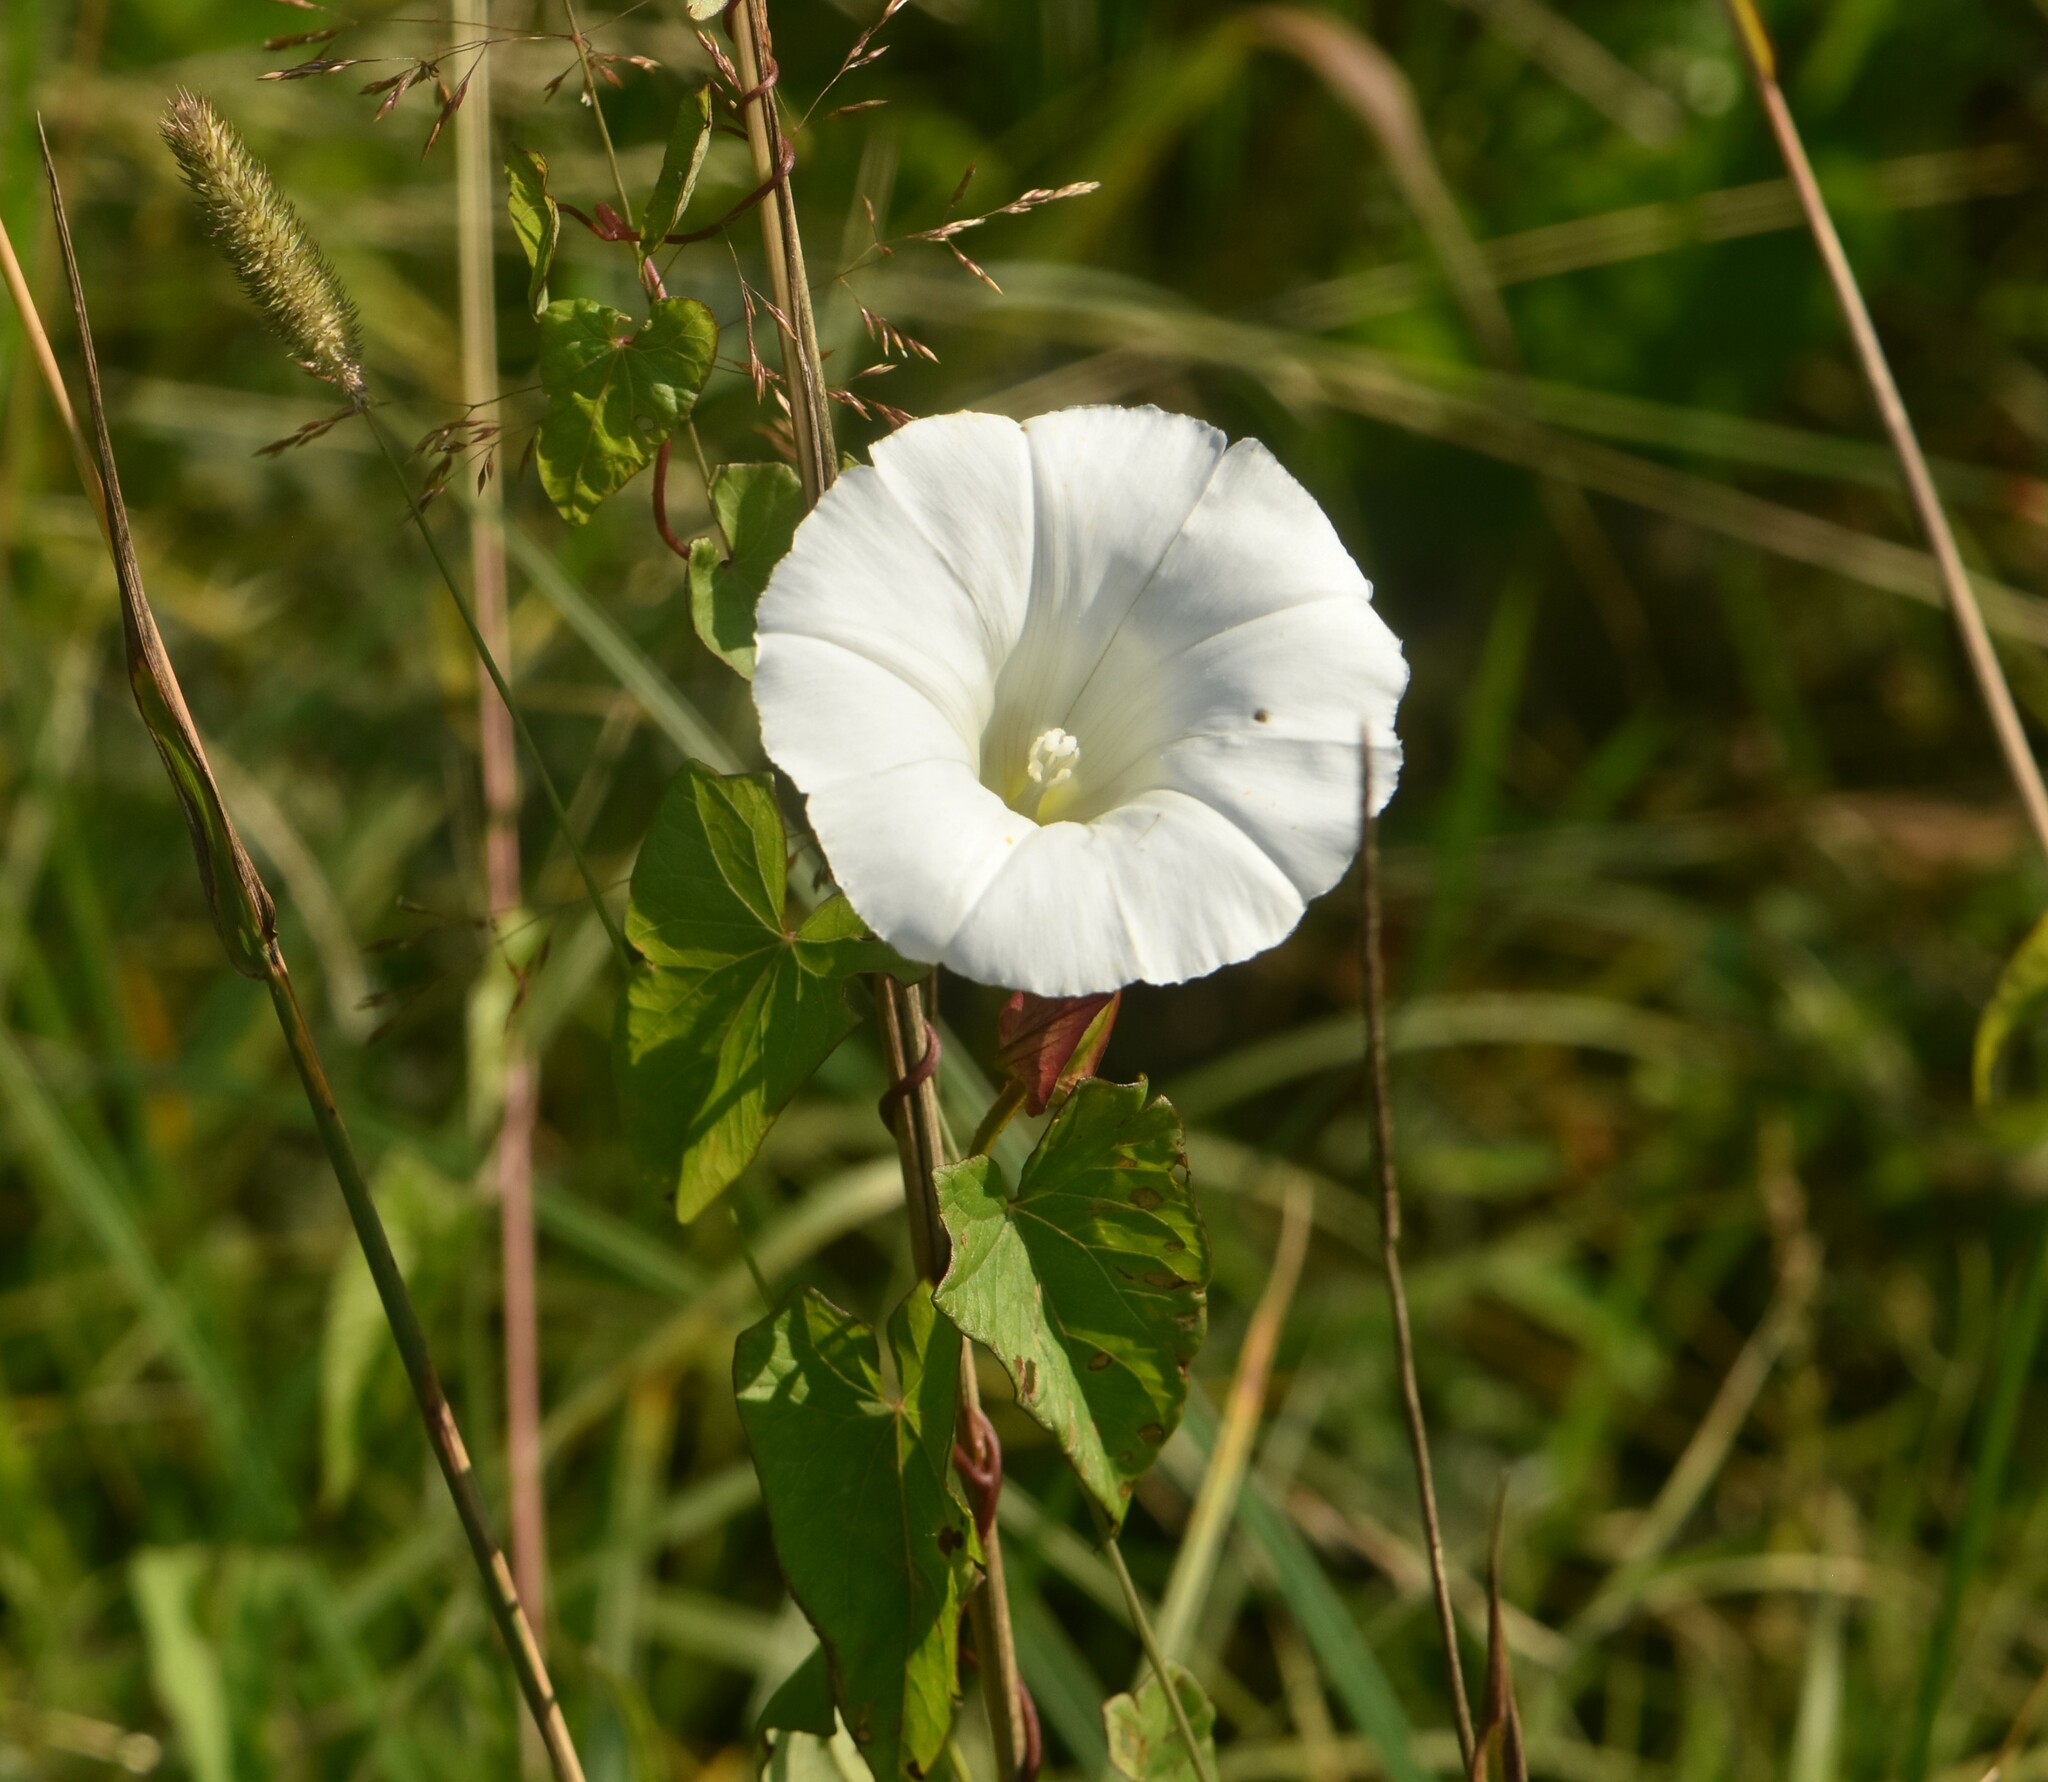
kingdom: Plantae
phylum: Tracheophyta
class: Magnoliopsida
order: Solanales
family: Convolvulaceae
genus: Calystegia
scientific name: Calystegia sepium
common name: Hedge bindweed
